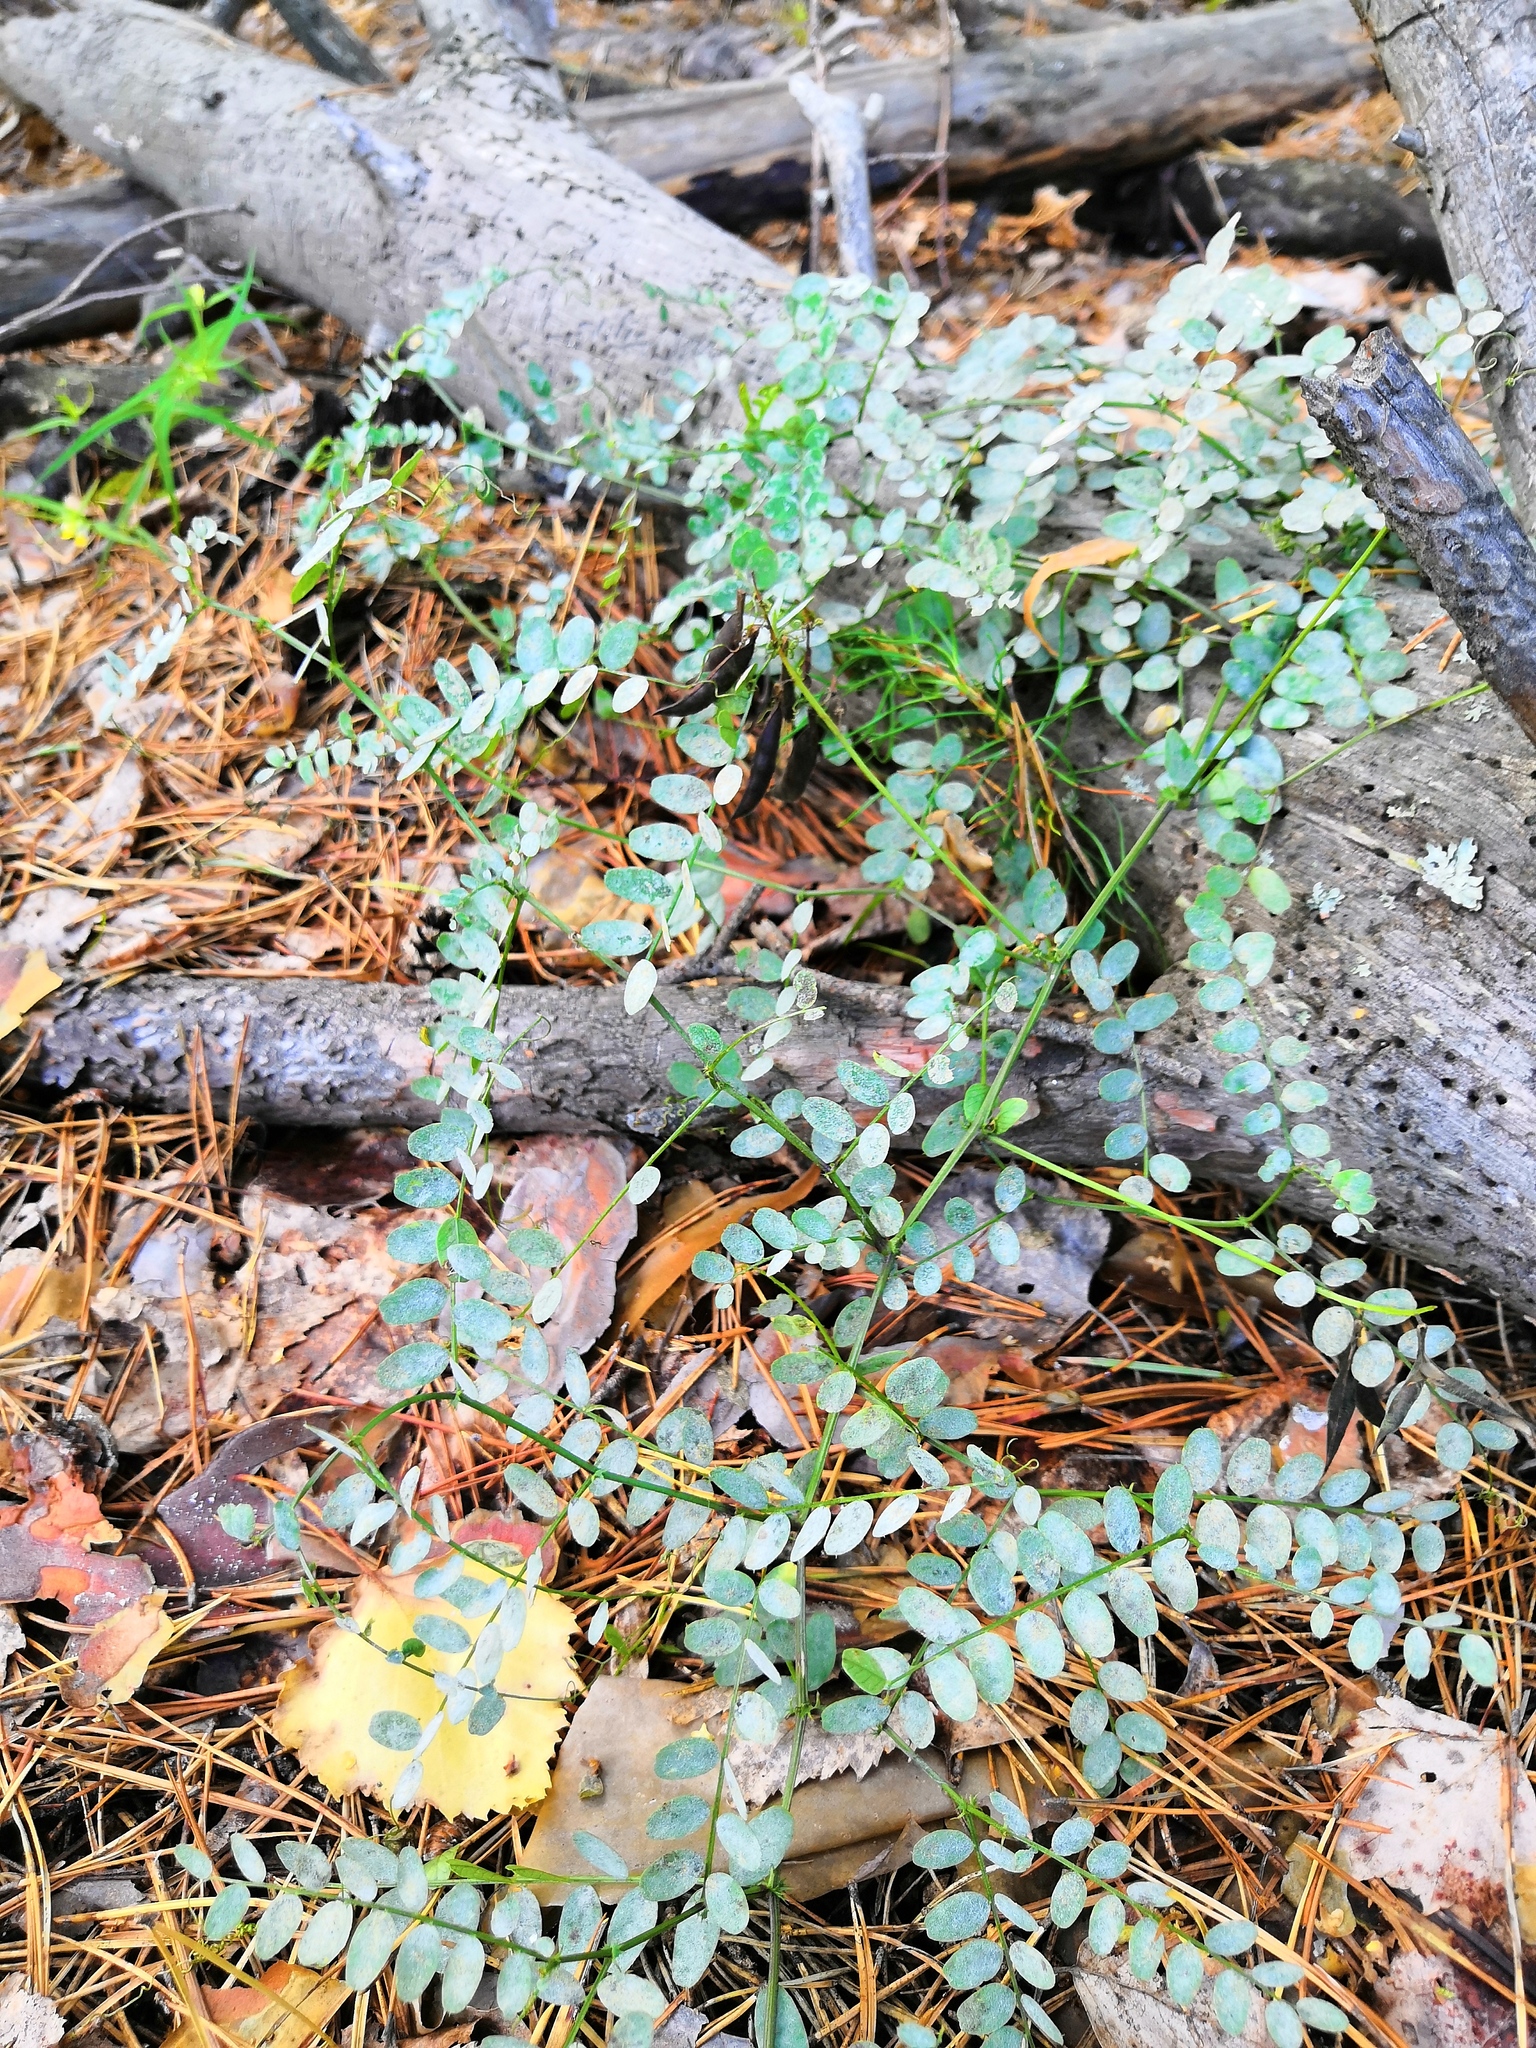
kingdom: Plantae
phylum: Tracheophyta
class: Magnoliopsida
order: Fabales
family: Fabaceae
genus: Vicia
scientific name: Vicia sylvatica
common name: Wood vetch
